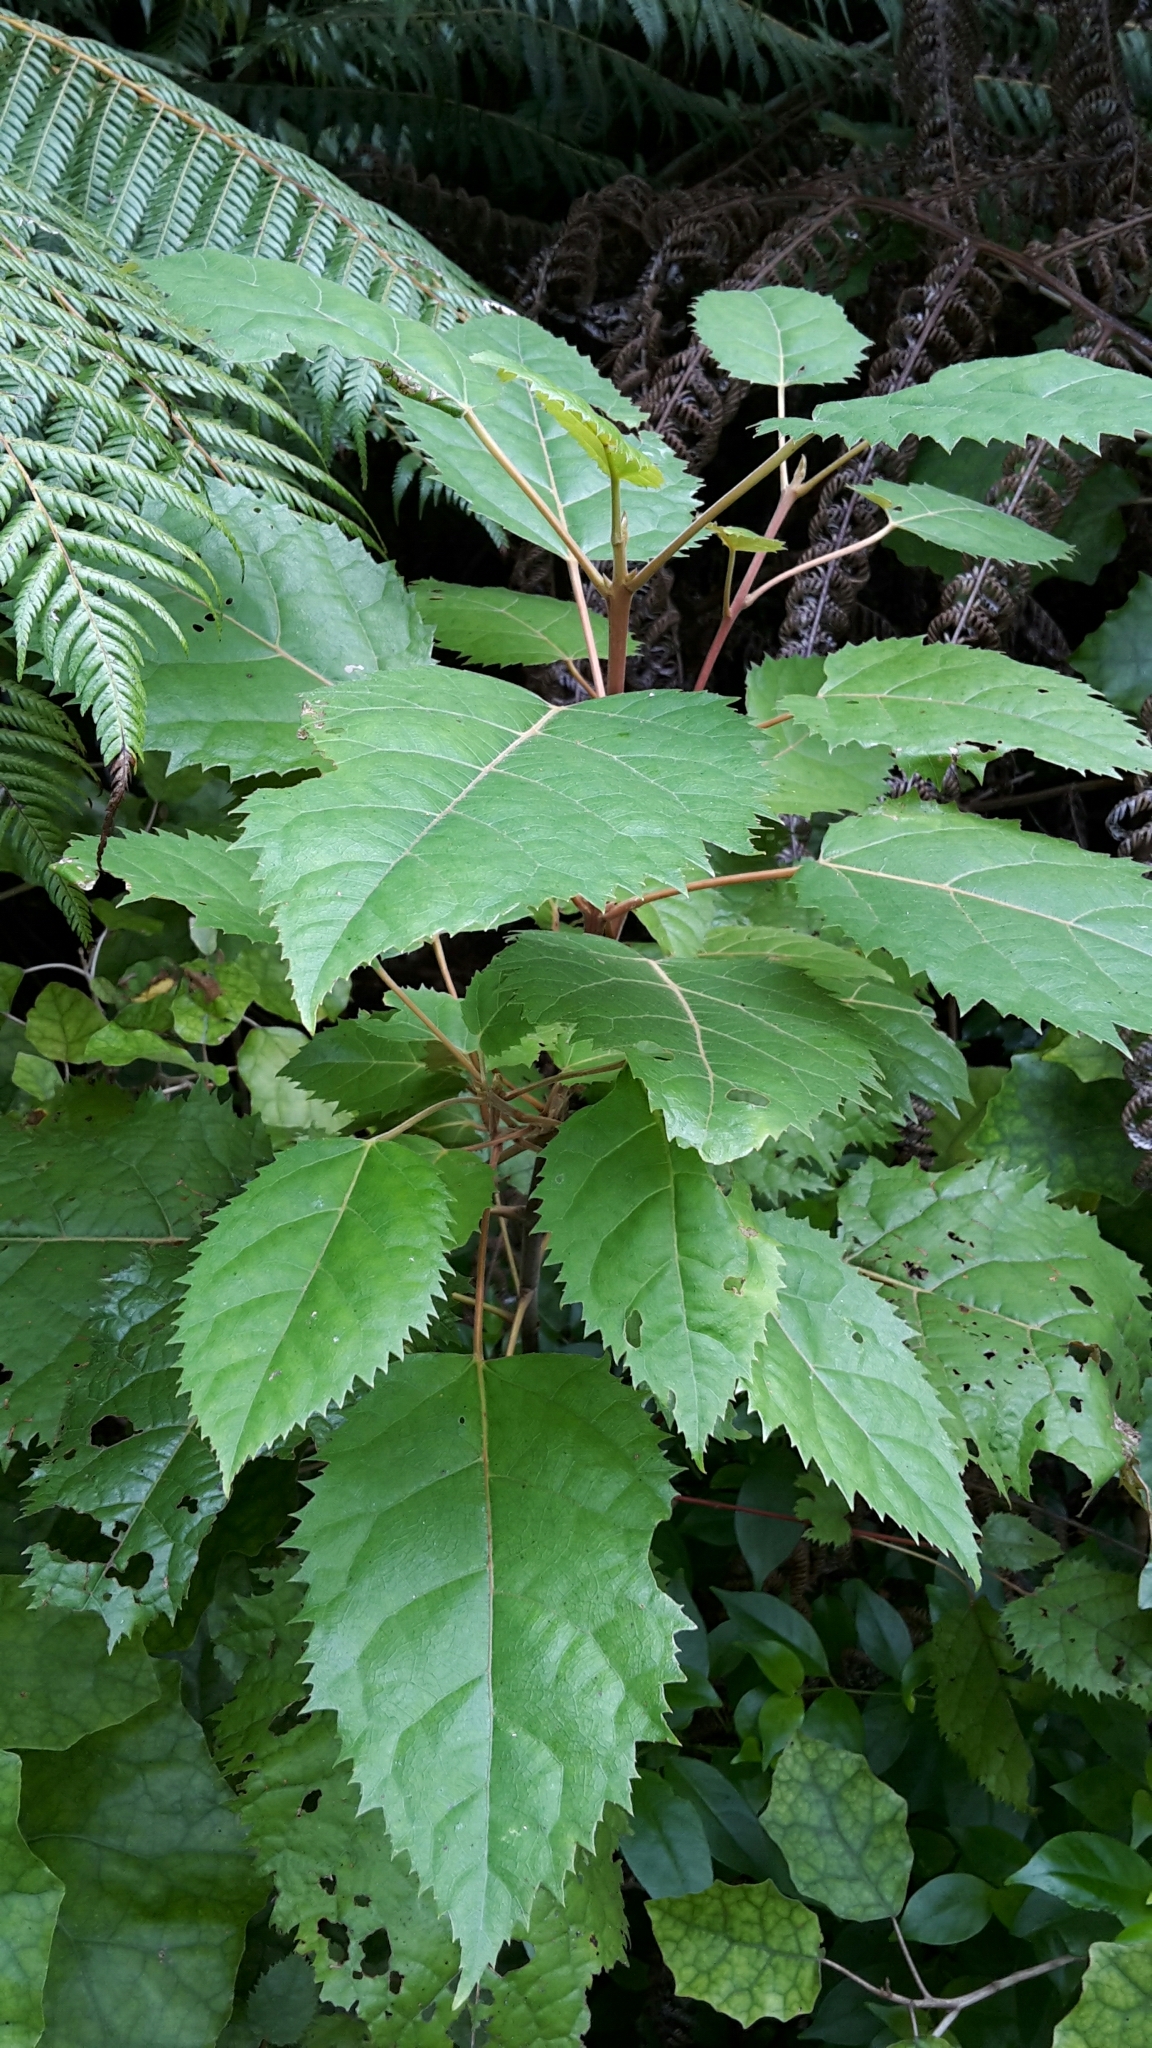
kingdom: Plantae
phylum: Tracheophyta
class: Magnoliopsida
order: Oxalidales
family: Elaeocarpaceae
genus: Aristotelia
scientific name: Aristotelia serrata
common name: New zealand wineberry
